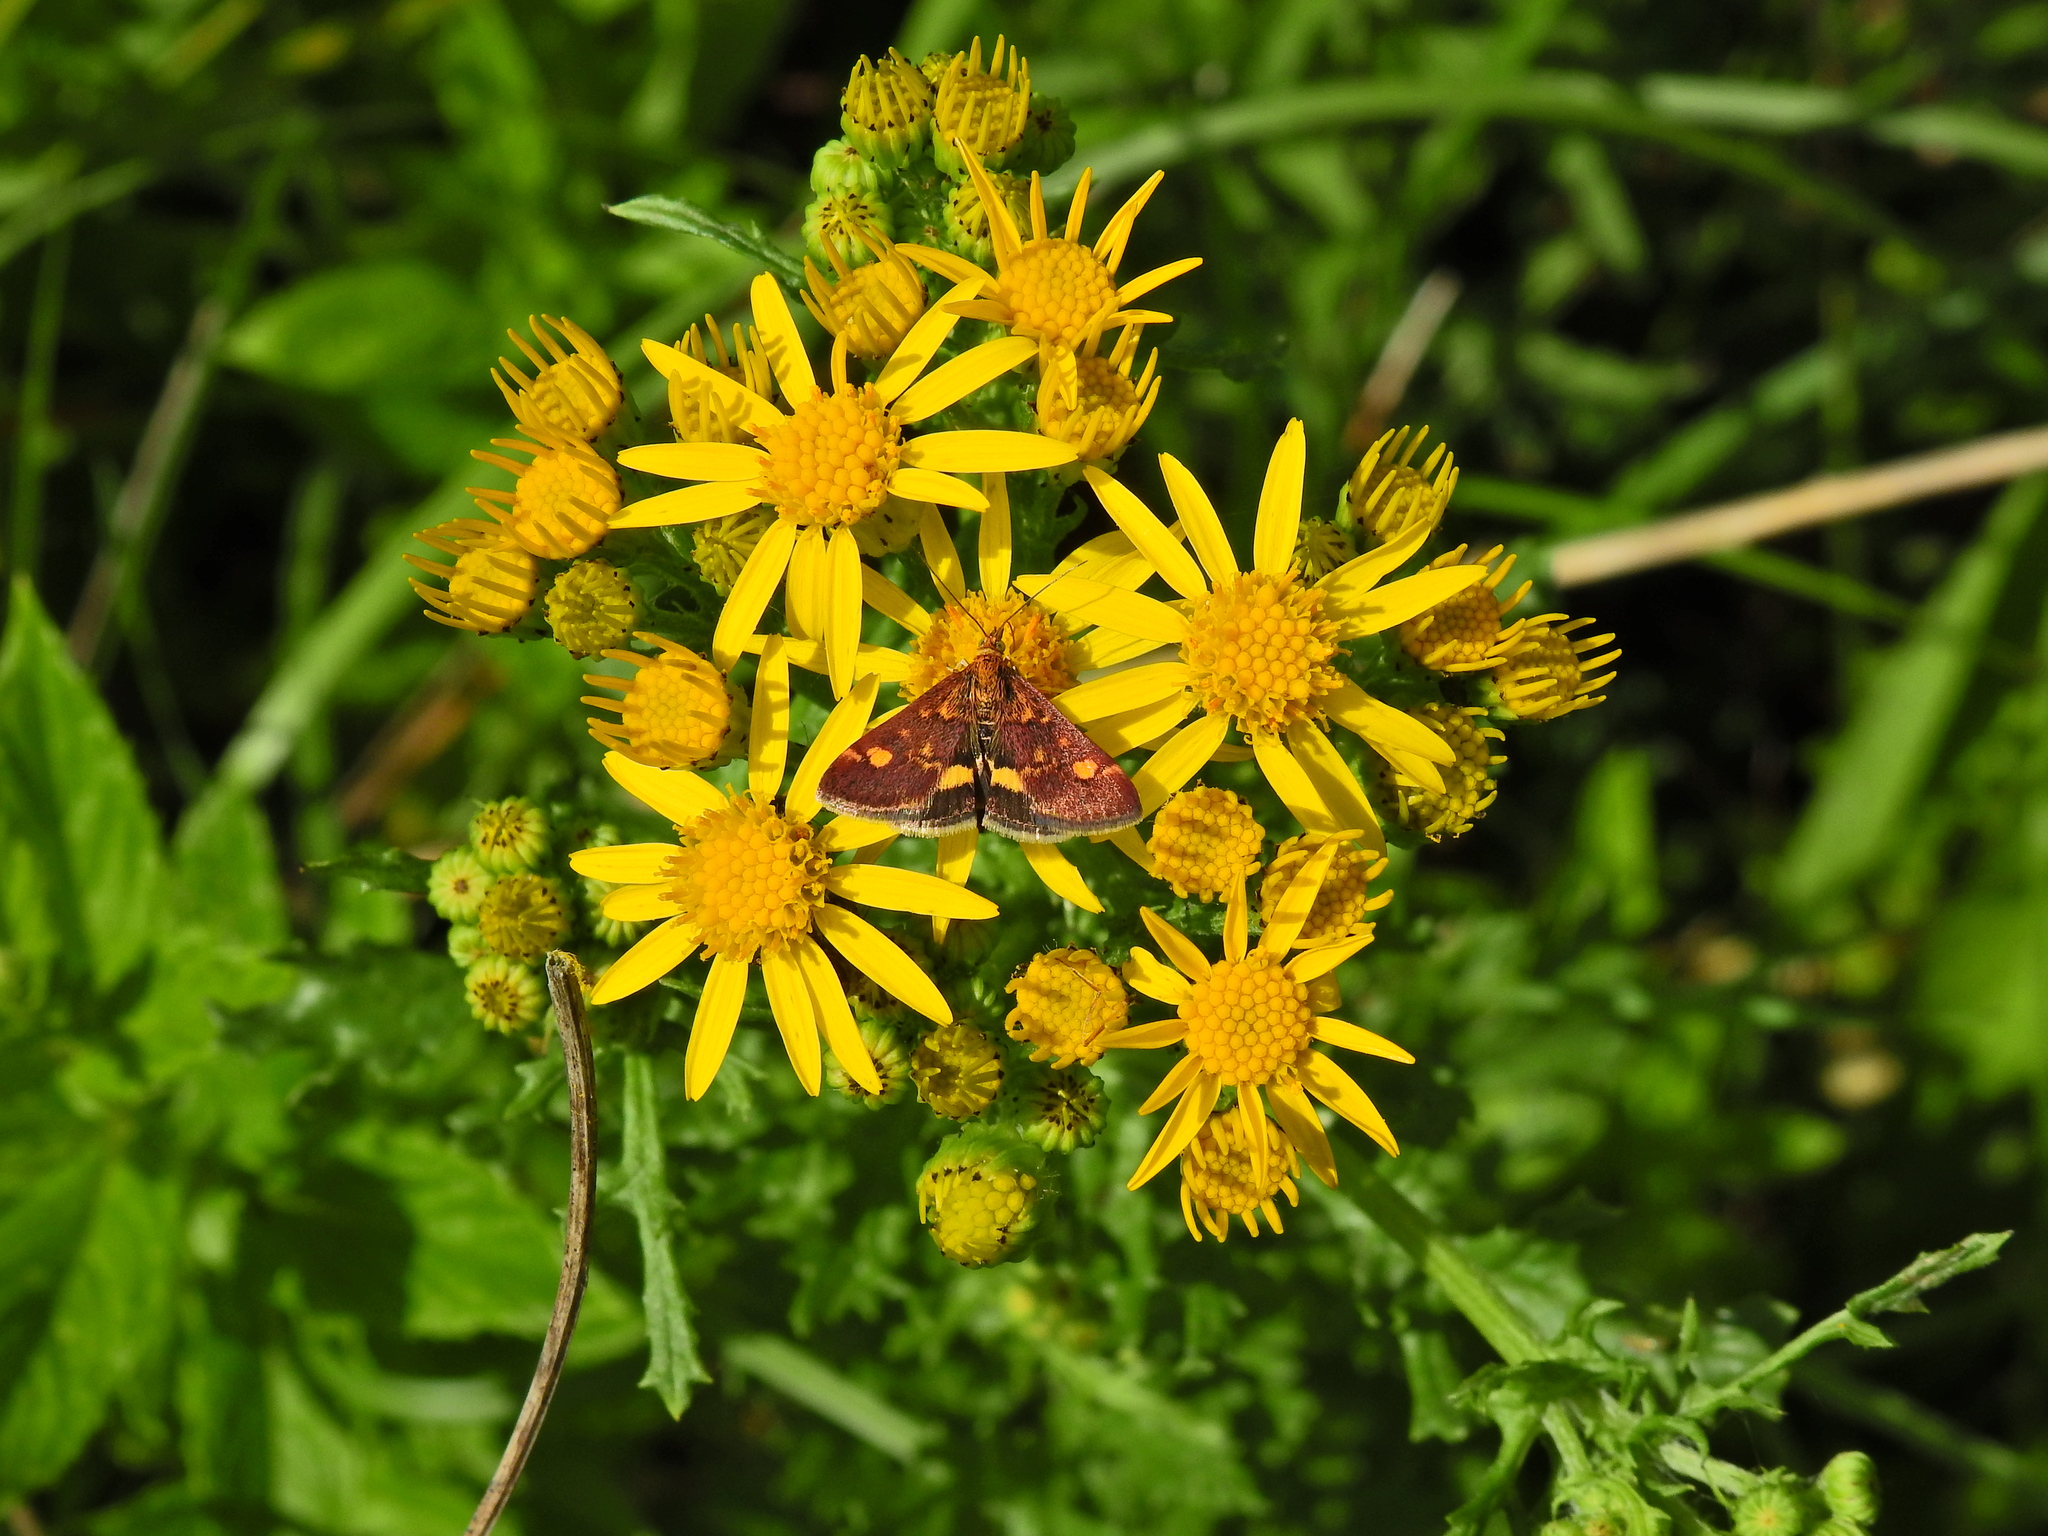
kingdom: Animalia
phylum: Arthropoda
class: Insecta
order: Lepidoptera
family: Crambidae
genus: Pyrausta
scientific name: Pyrausta aurata
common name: Small purple & gold
